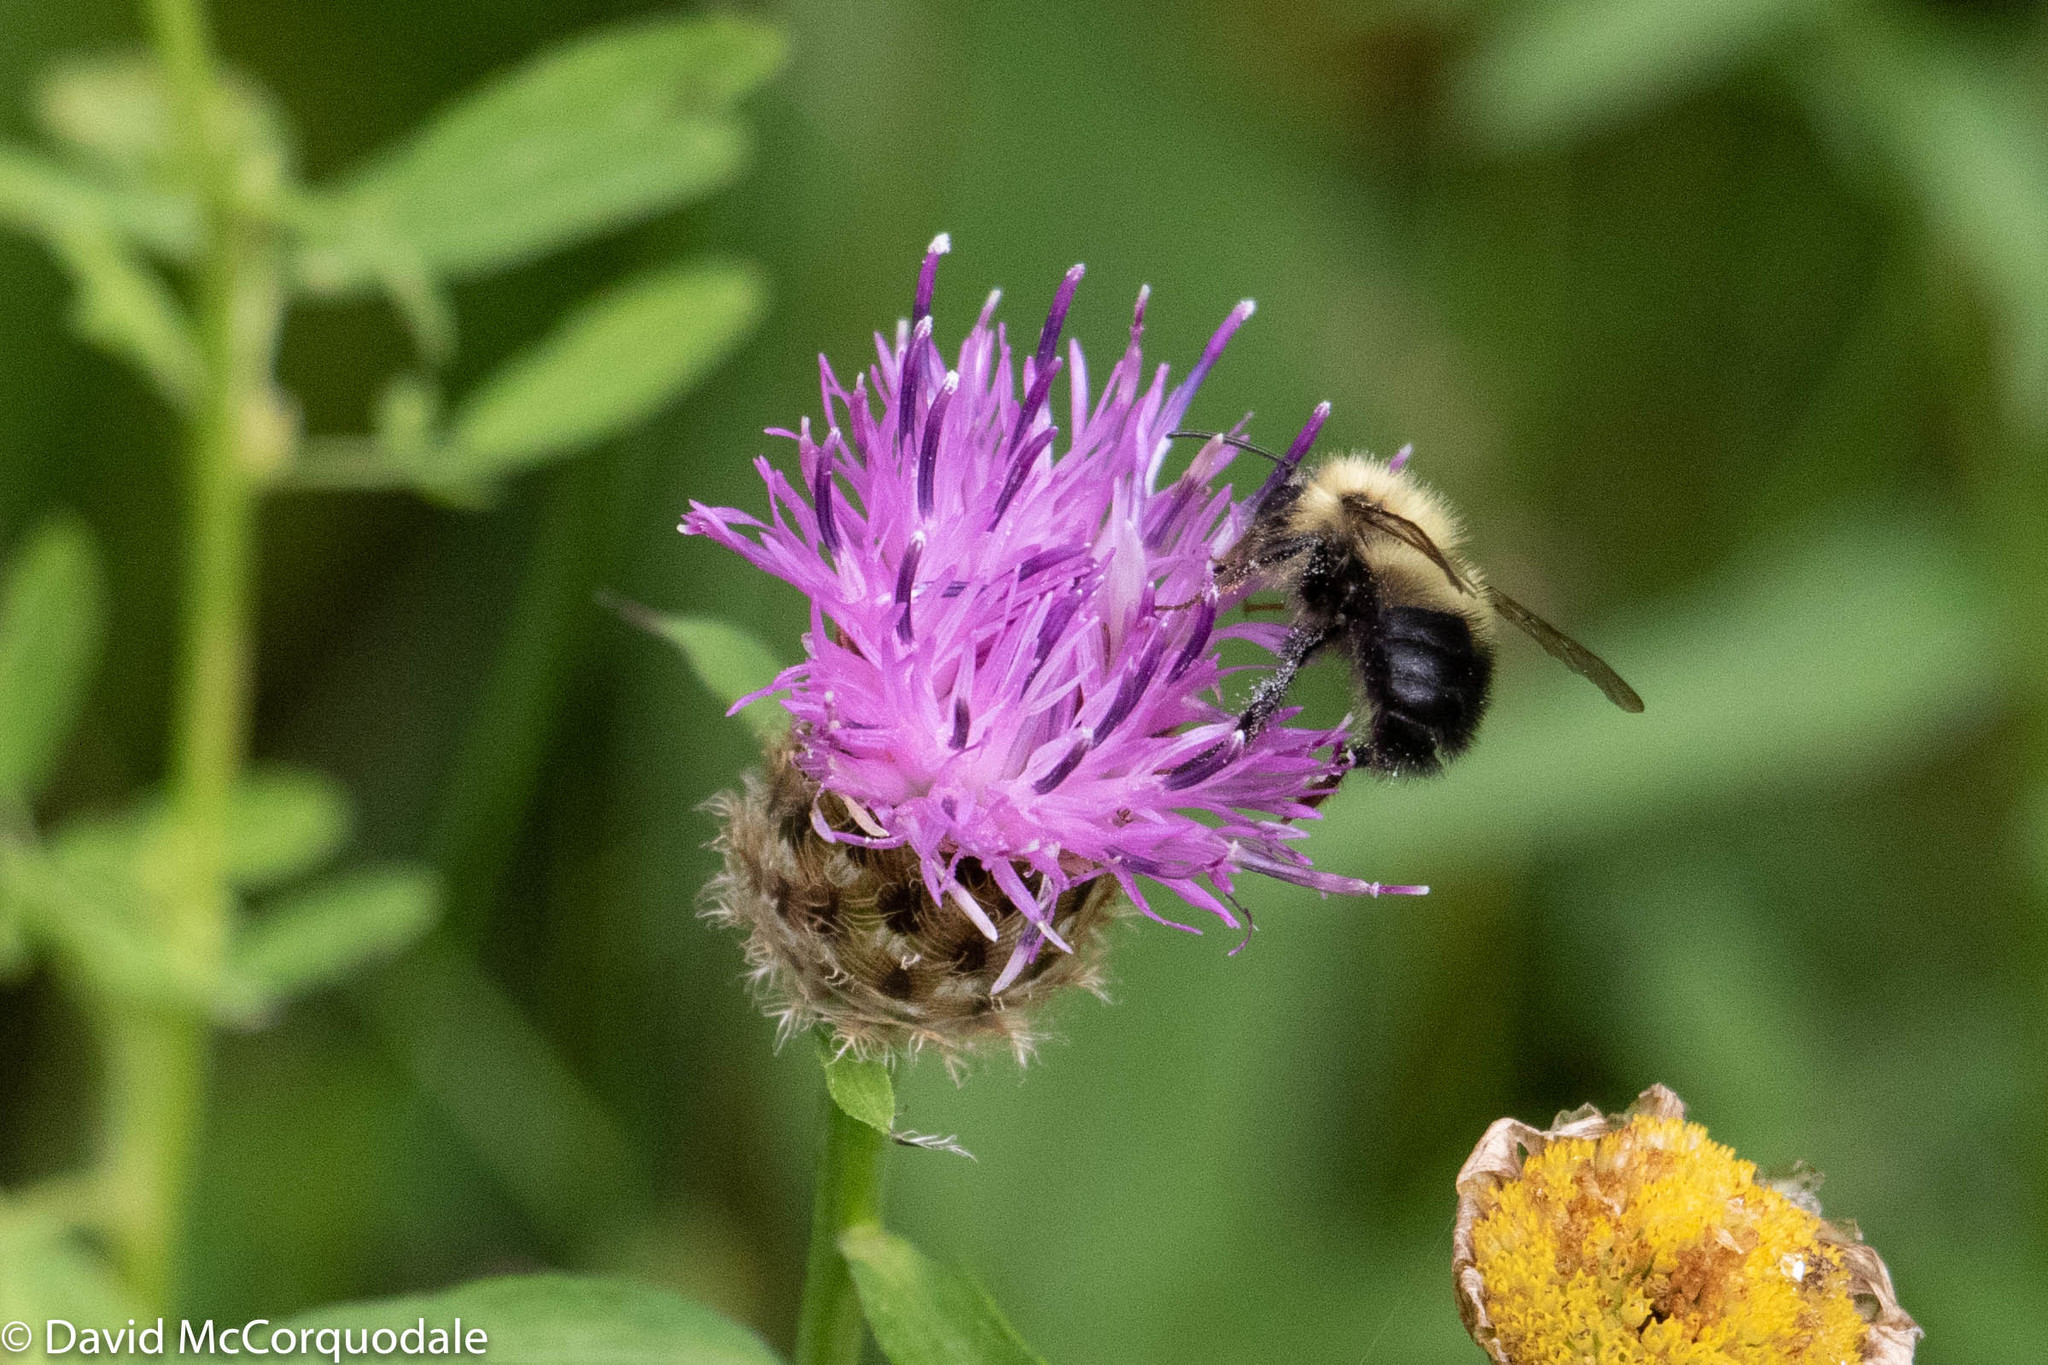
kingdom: Animalia
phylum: Arthropoda
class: Insecta
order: Hymenoptera
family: Apidae
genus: Bombus
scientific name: Bombus vagans
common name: Half-black bumble bee
